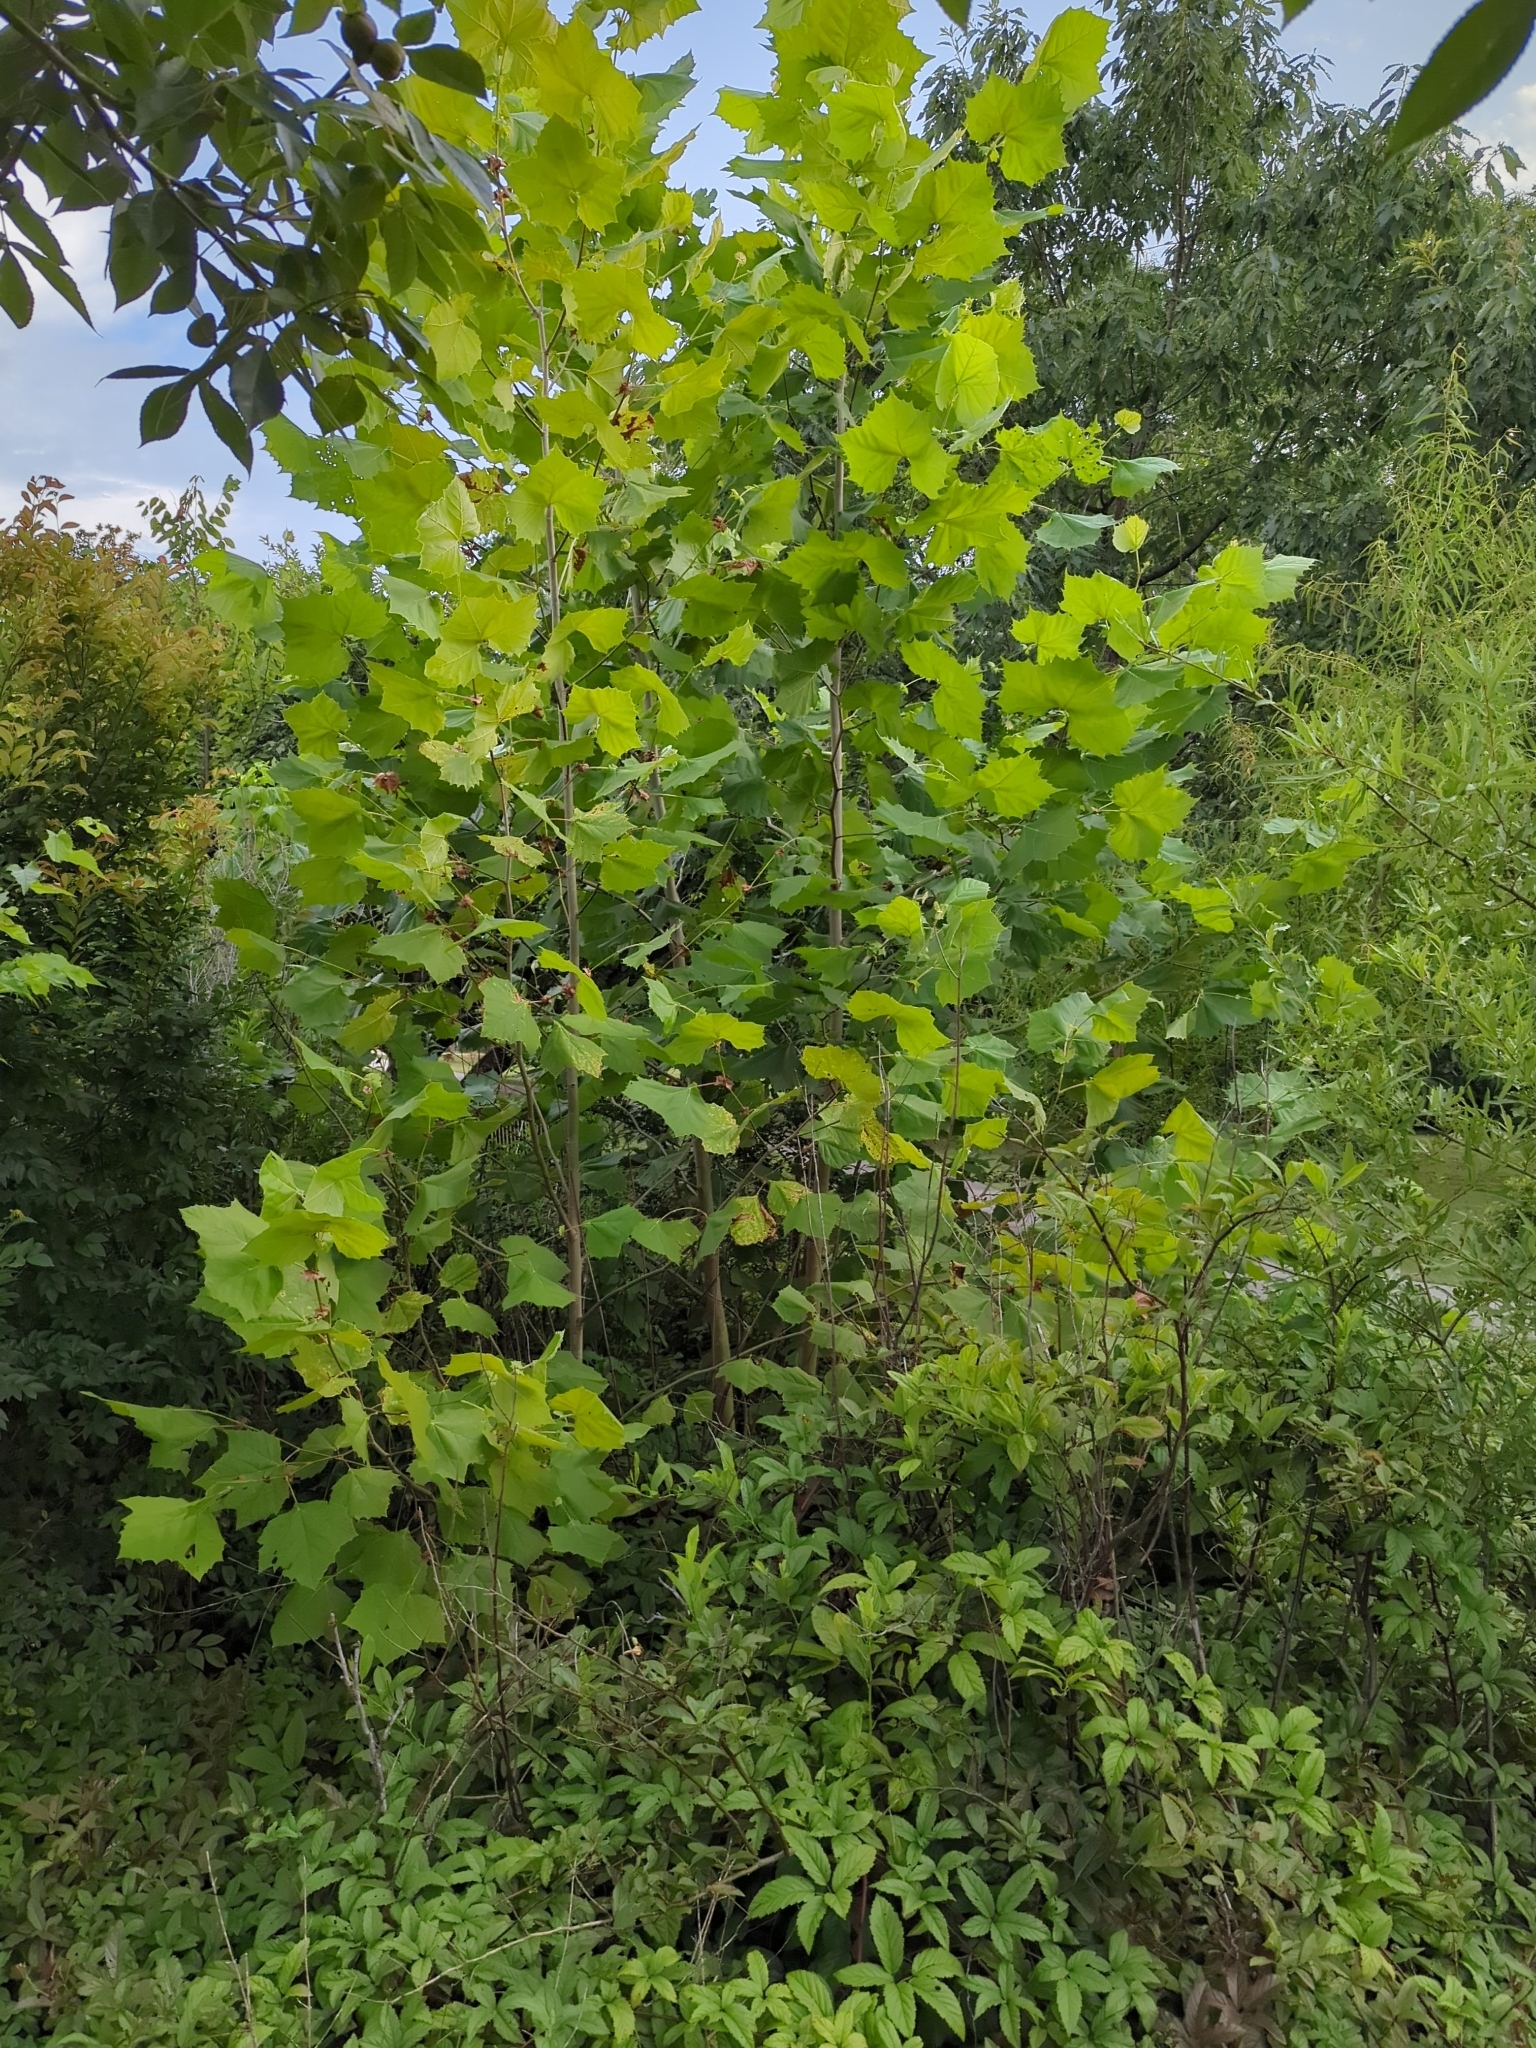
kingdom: Plantae
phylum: Tracheophyta
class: Magnoliopsida
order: Proteales
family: Platanaceae
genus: Platanus
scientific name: Platanus occidentalis
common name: American sycamore
